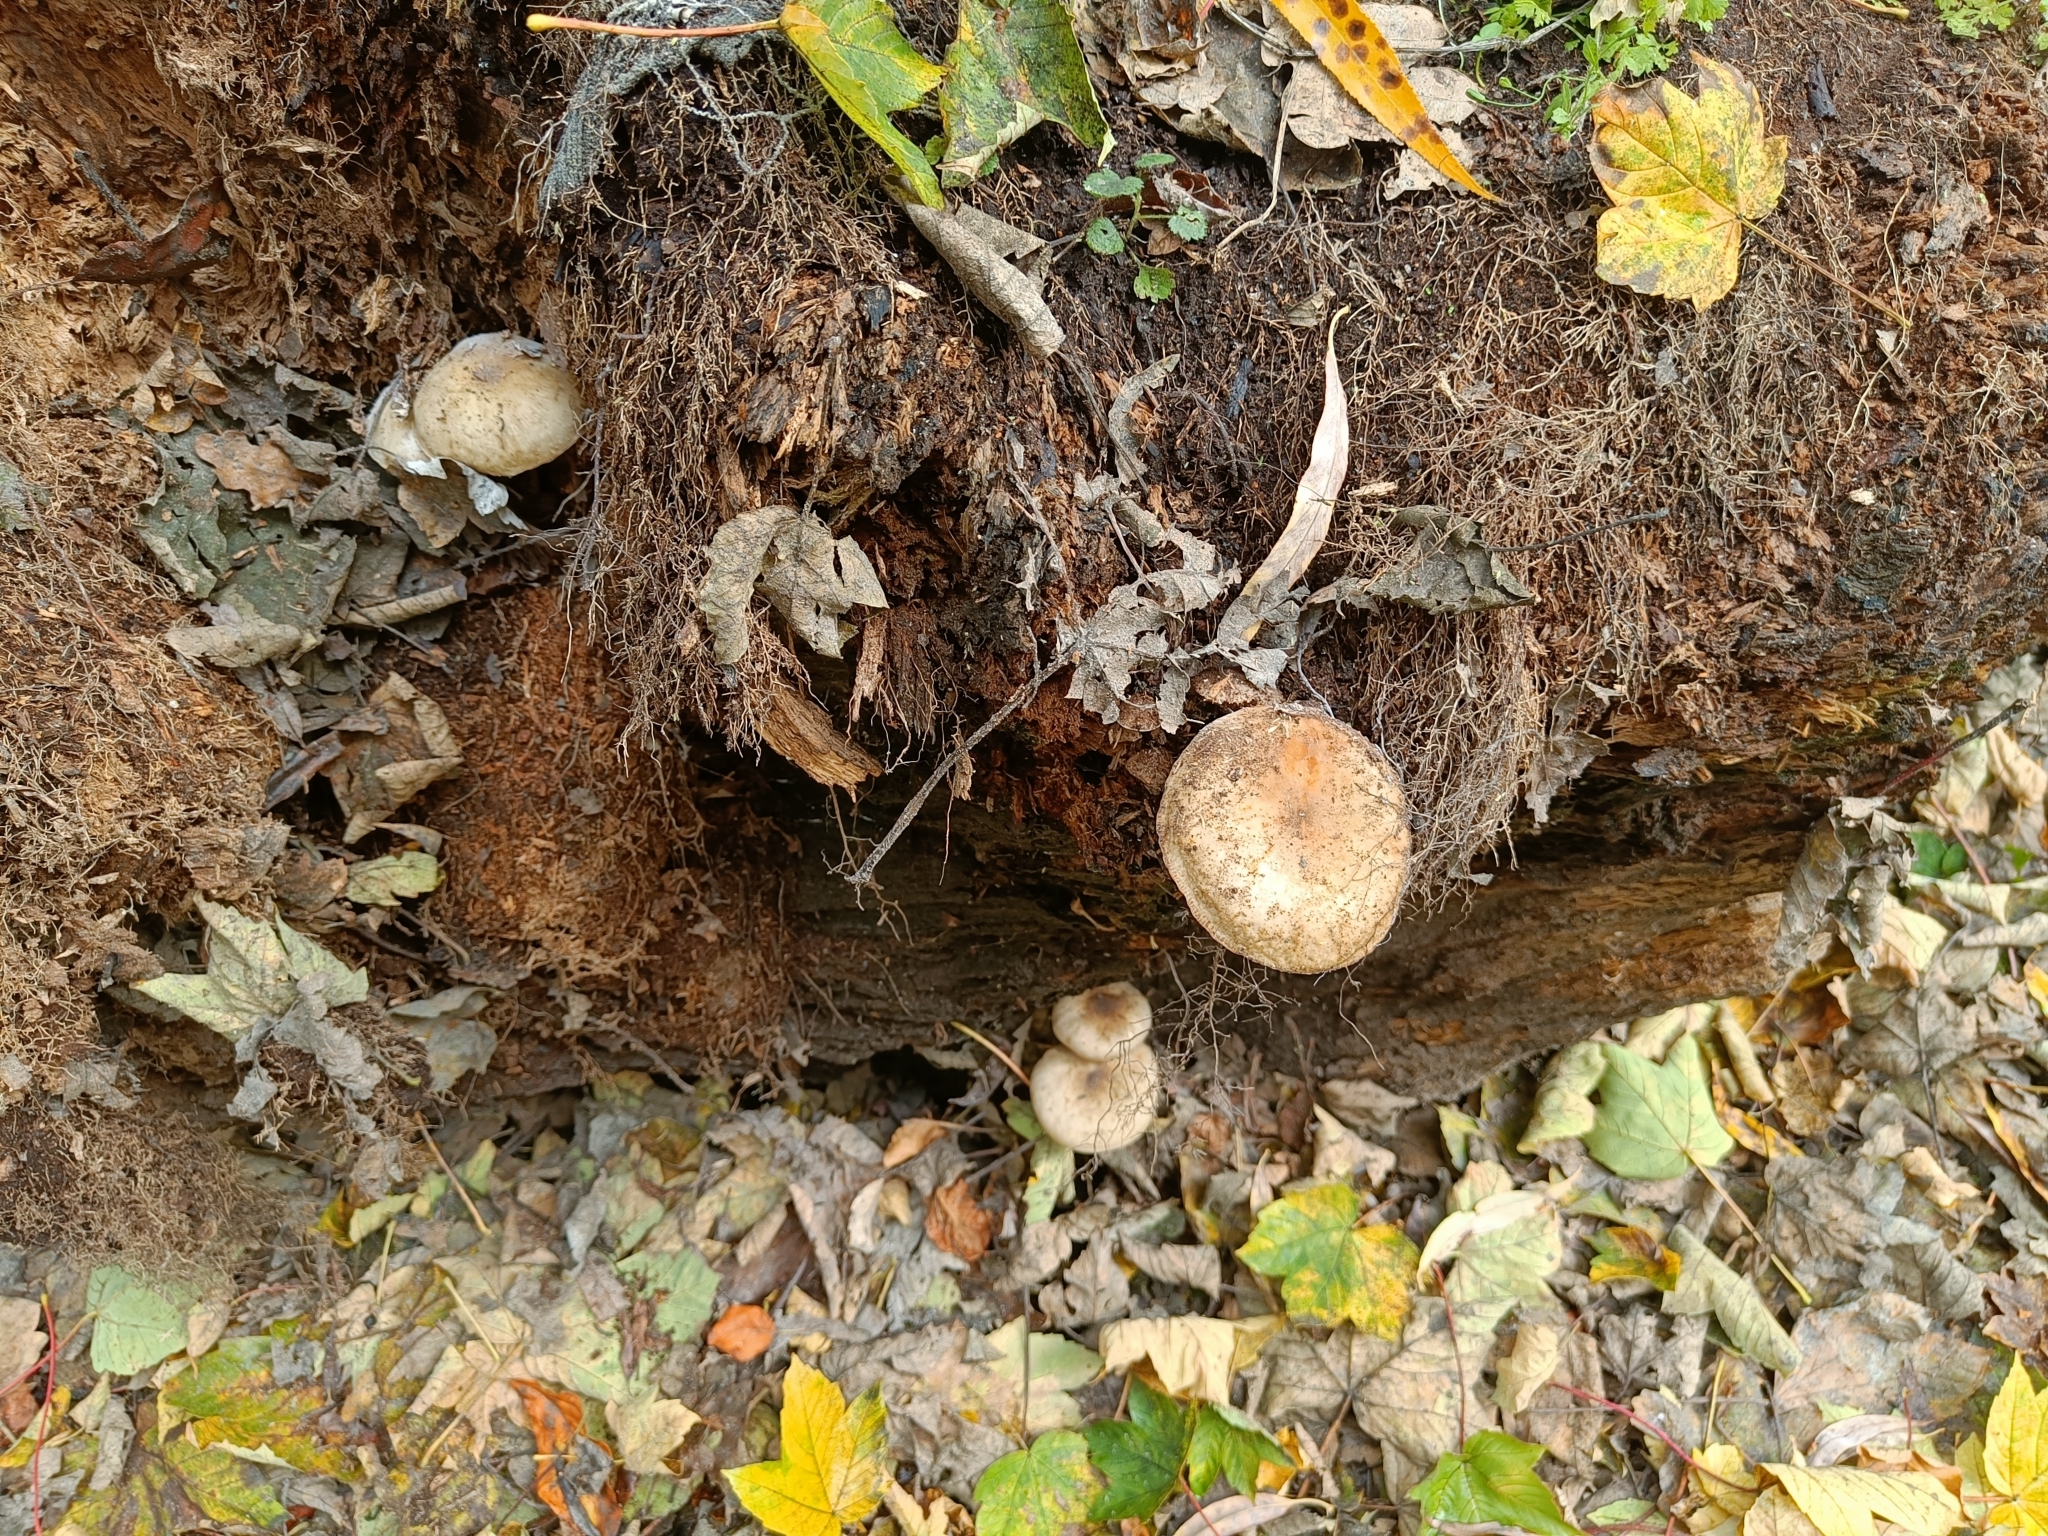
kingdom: Fungi
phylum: Basidiomycota
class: Agaricomycetes
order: Agaricales
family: Physalacriaceae
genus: Armillaria
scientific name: Armillaria novae-zelandiae
